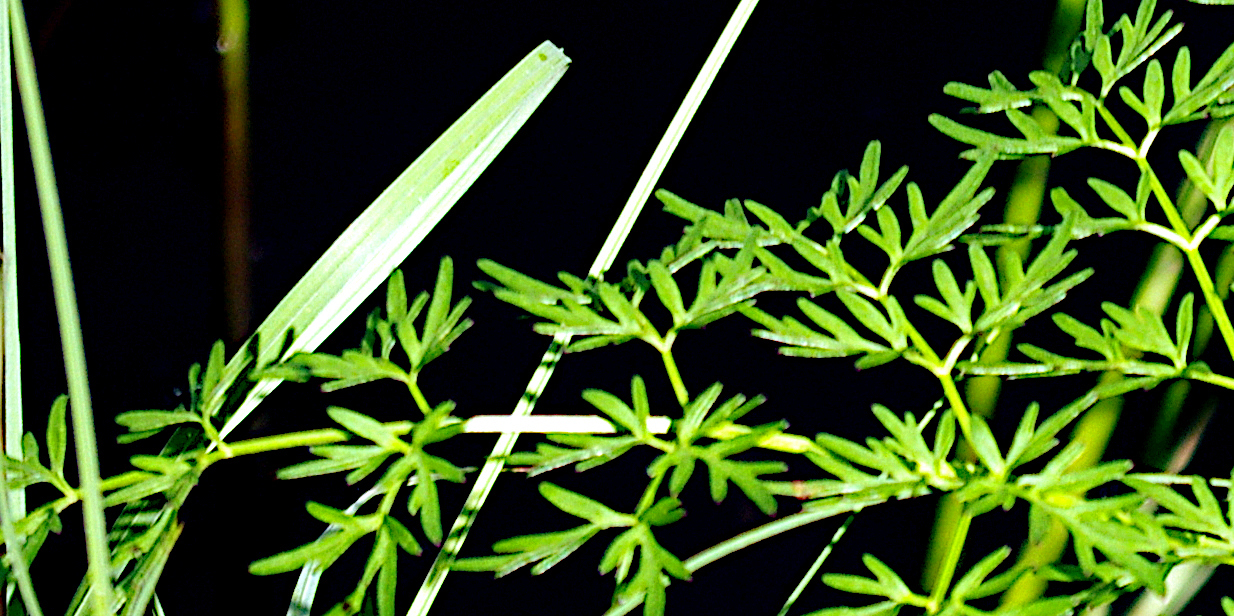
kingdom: Plantae
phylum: Tracheophyta
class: Magnoliopsida
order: Apiales
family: Apiaceae
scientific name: Apiaceae
